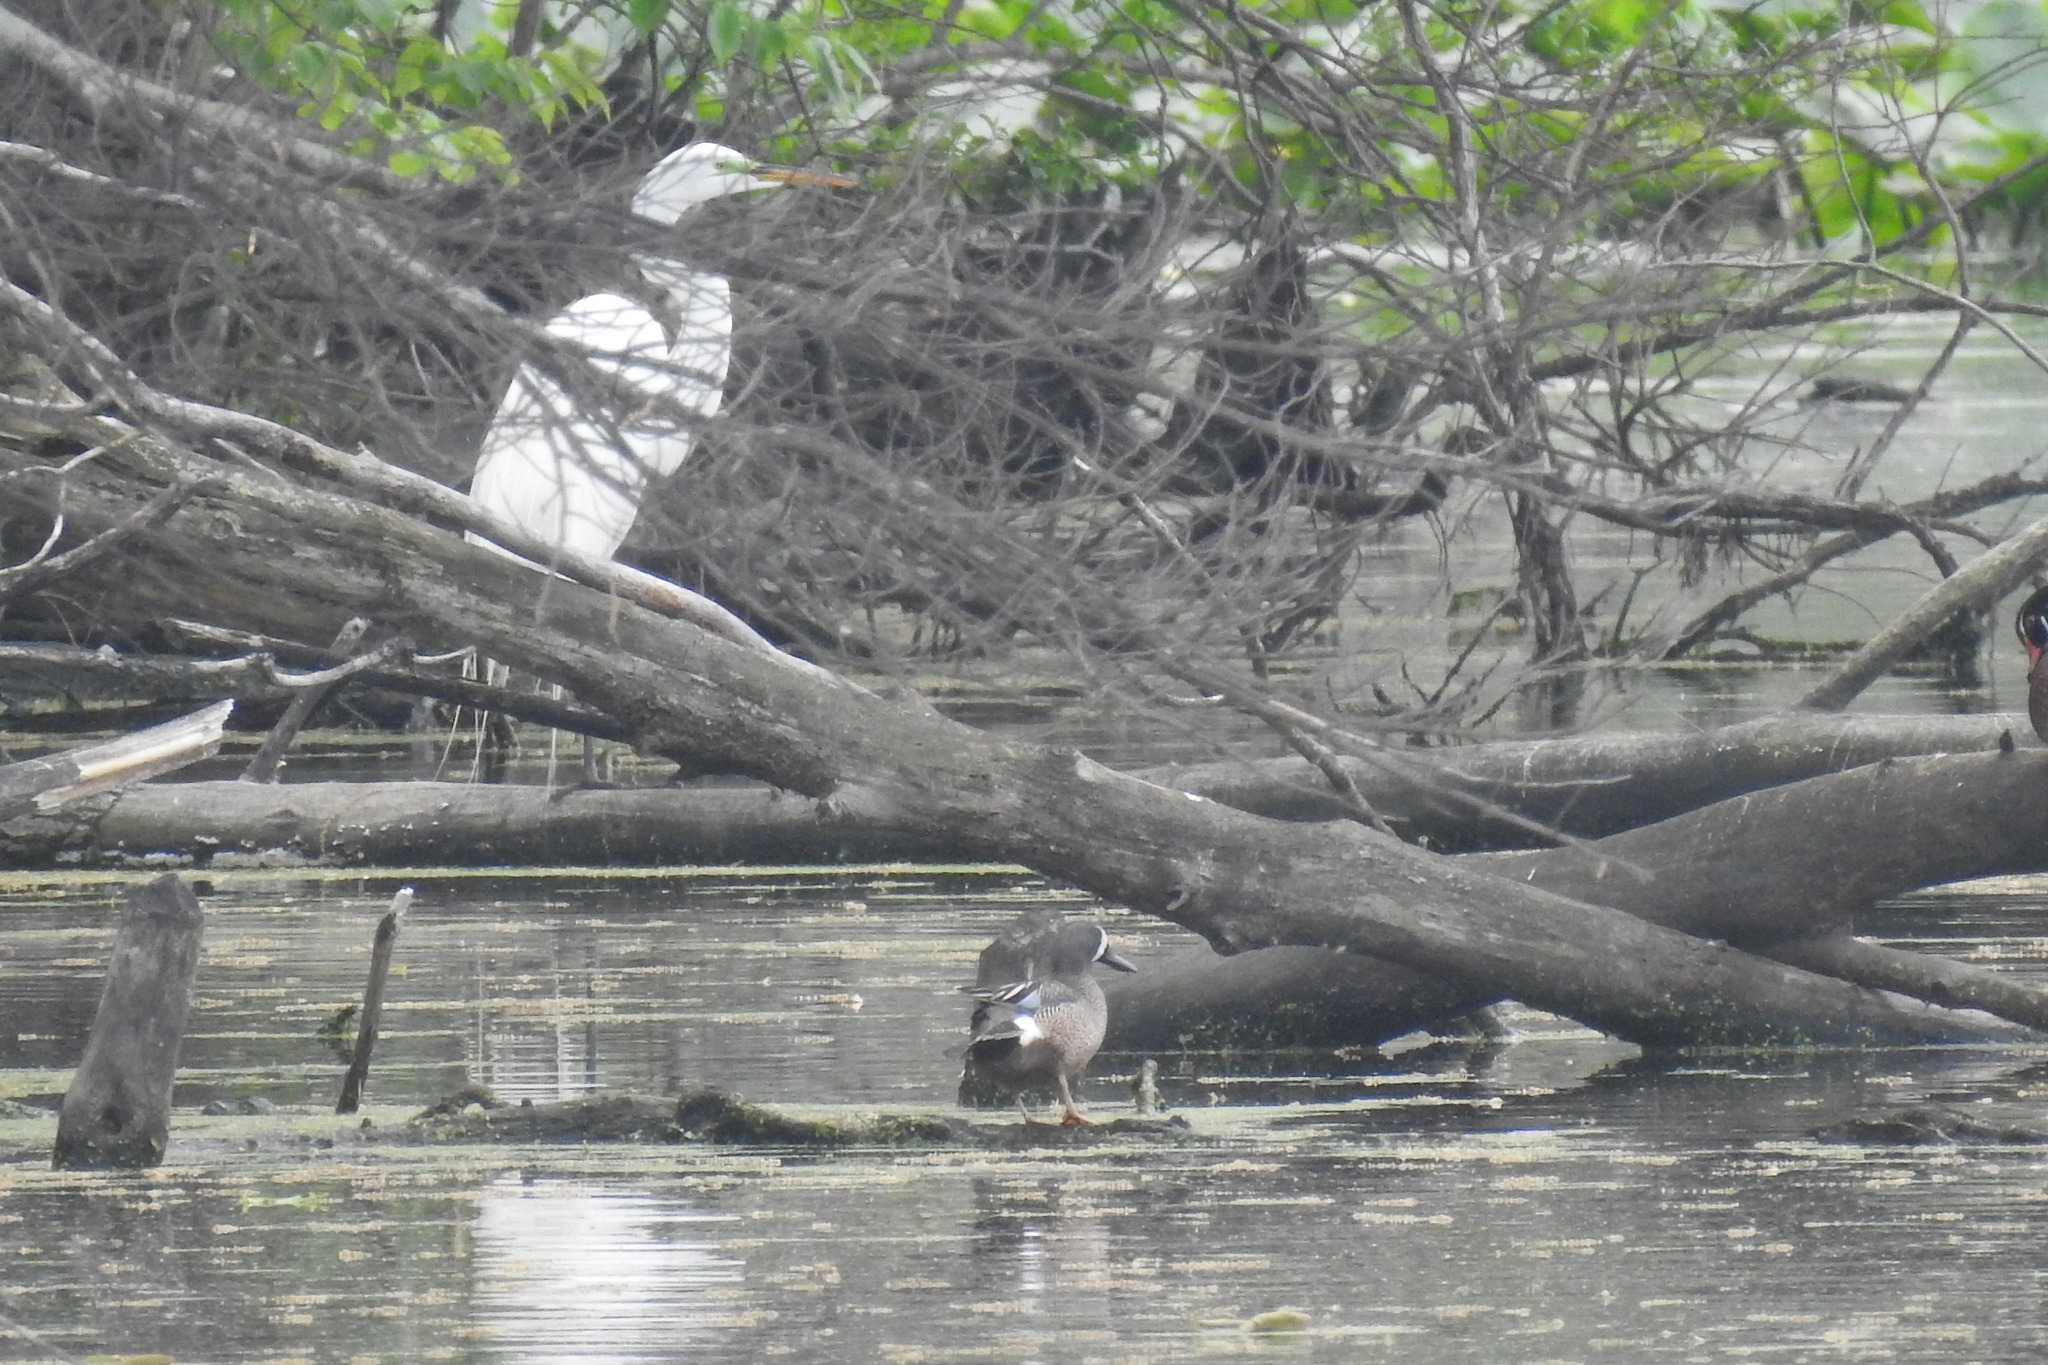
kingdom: Animalia
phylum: Chordata
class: Aves
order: Pelecaniformes
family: Ardeidae
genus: Ardea
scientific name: Ardea alba
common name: Great egret
